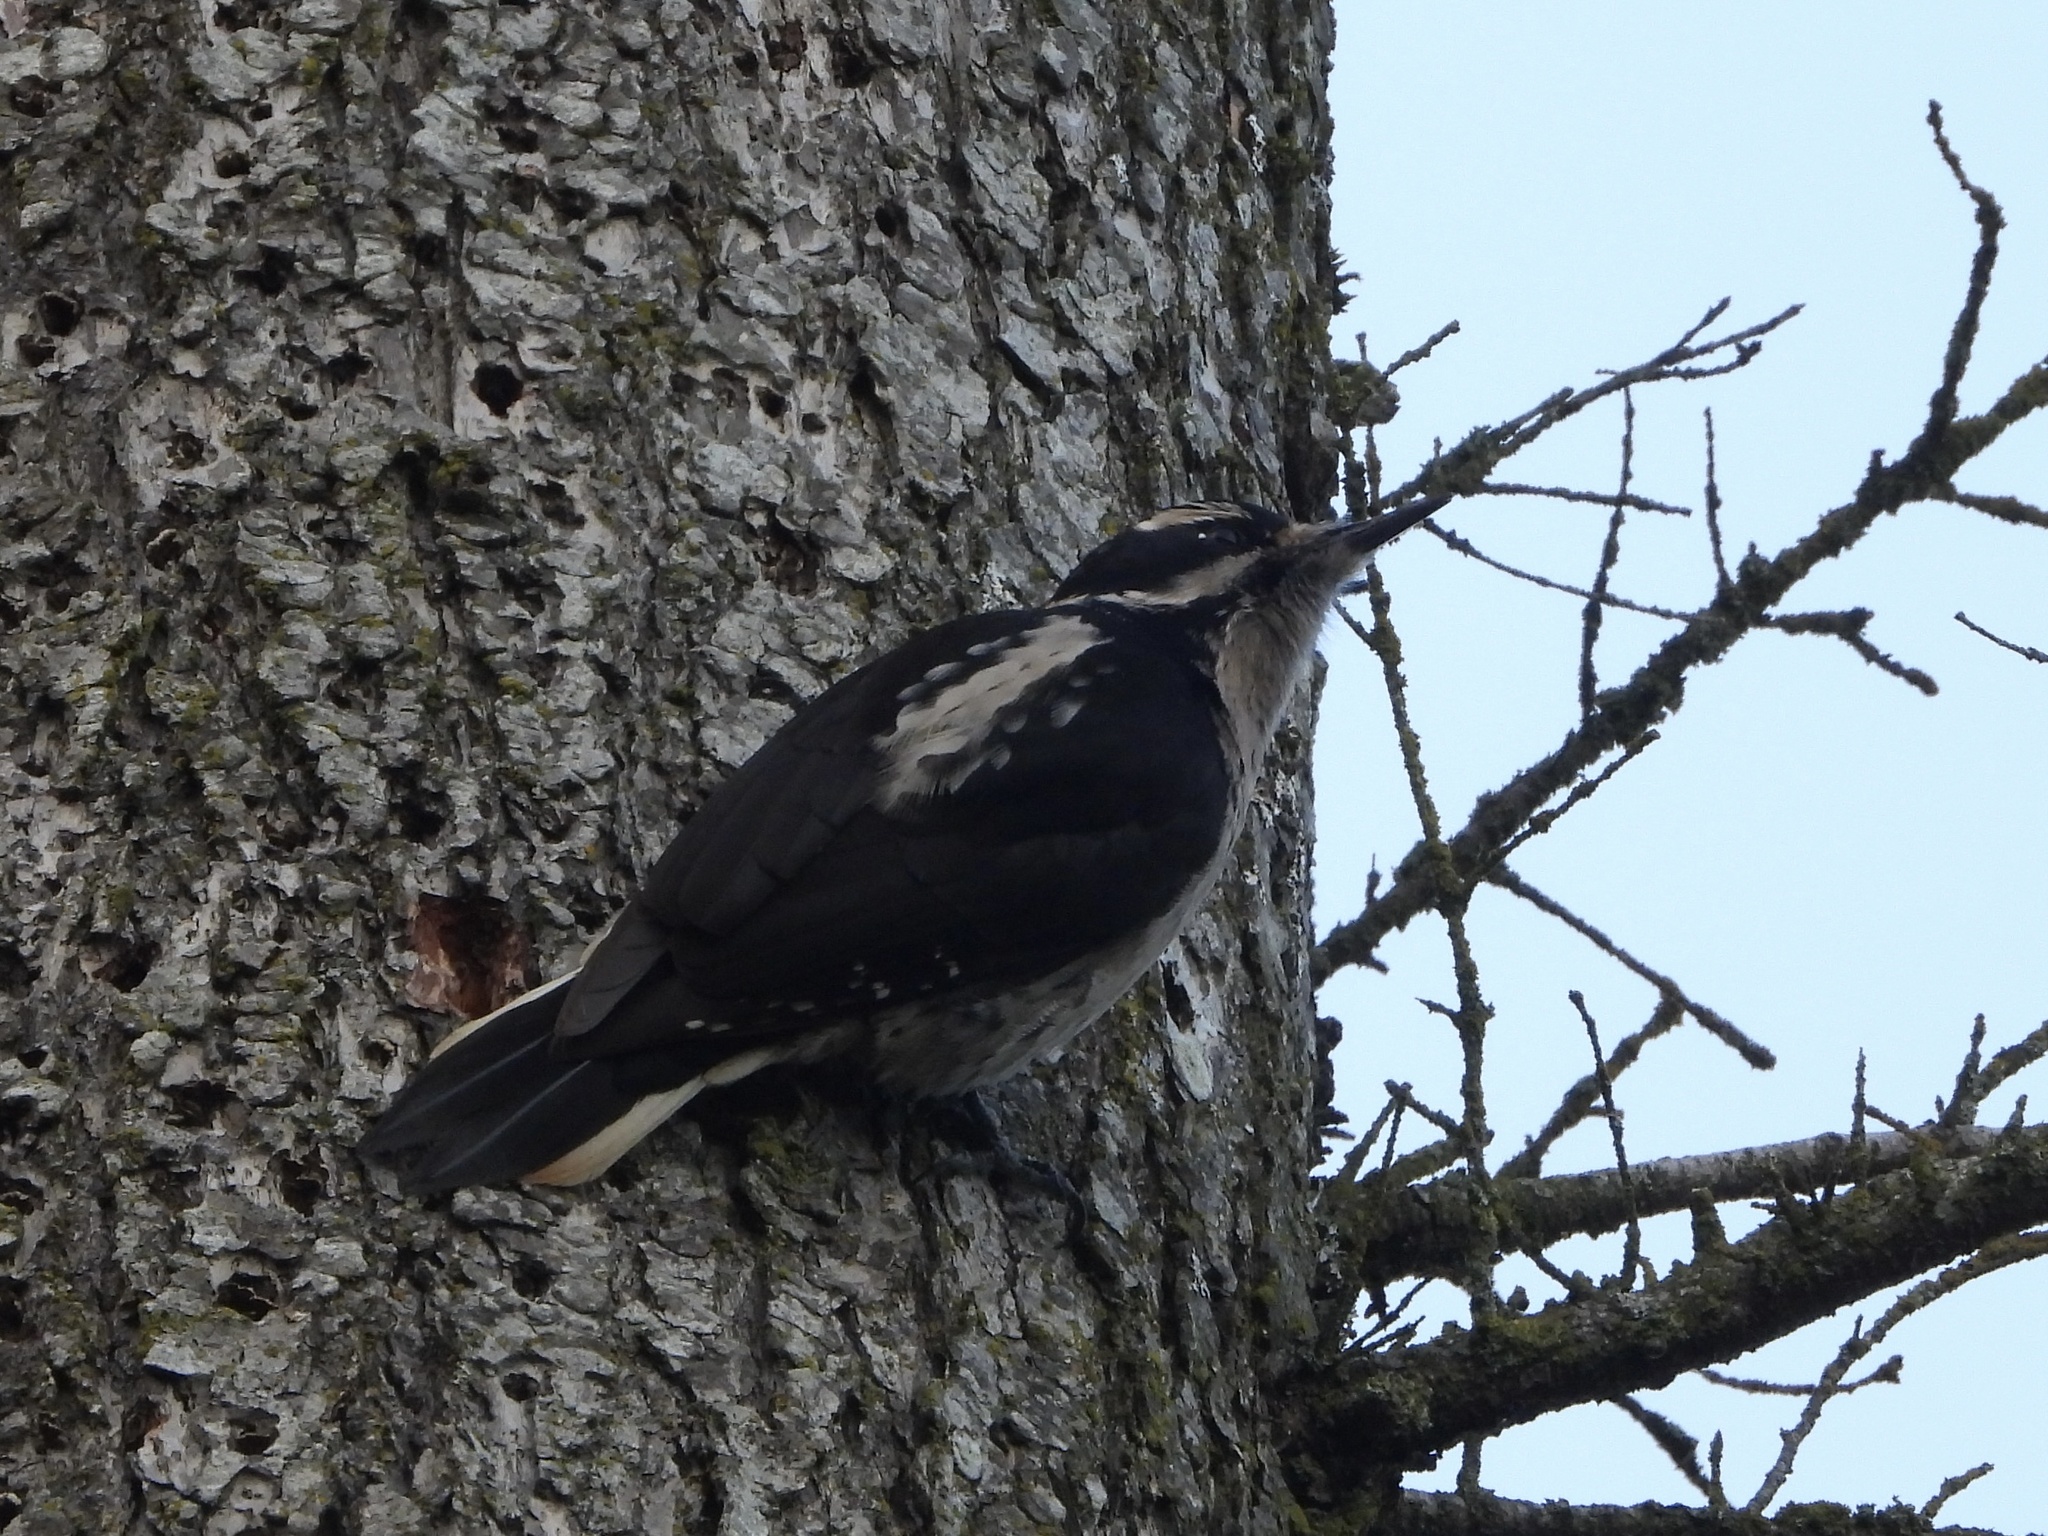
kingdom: Animalia
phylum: Chordata
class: Aves
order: Piciformes
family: Picidae
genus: Leuconotopicus
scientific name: Leuconotopicus villosus
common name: Hairy woodpecker
